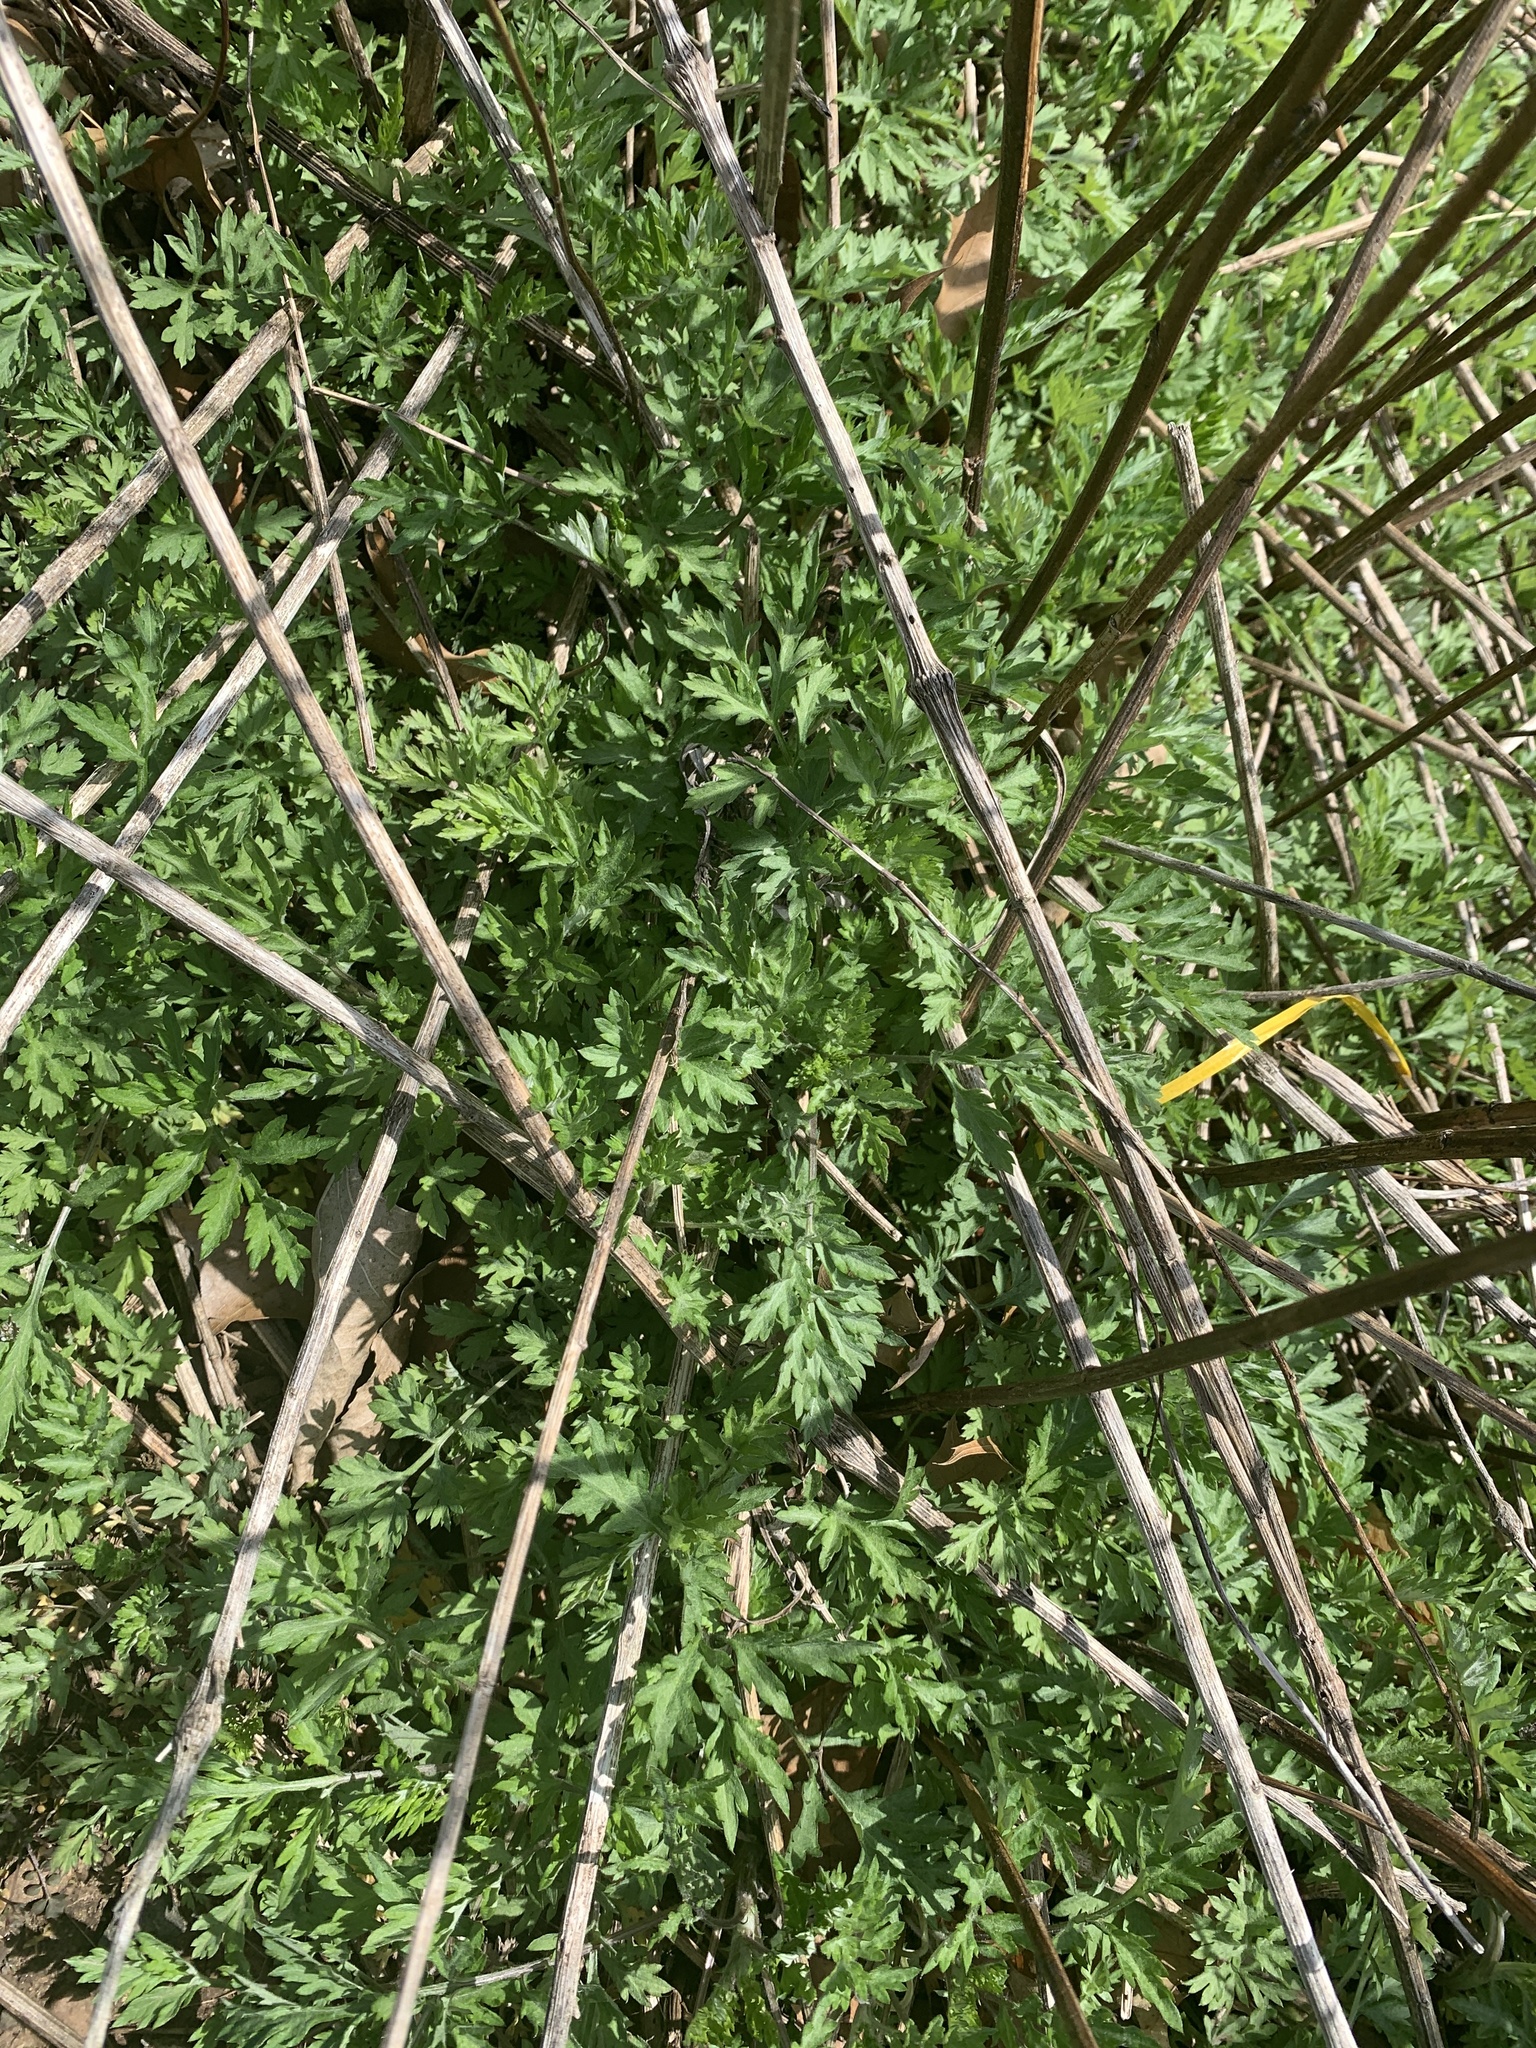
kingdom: Plantae
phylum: Tracheophyta
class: Magnoliopsida
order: Asterales
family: Asteraceae
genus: Artemisia
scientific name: Artemisia vulgaris
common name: Mugwort
